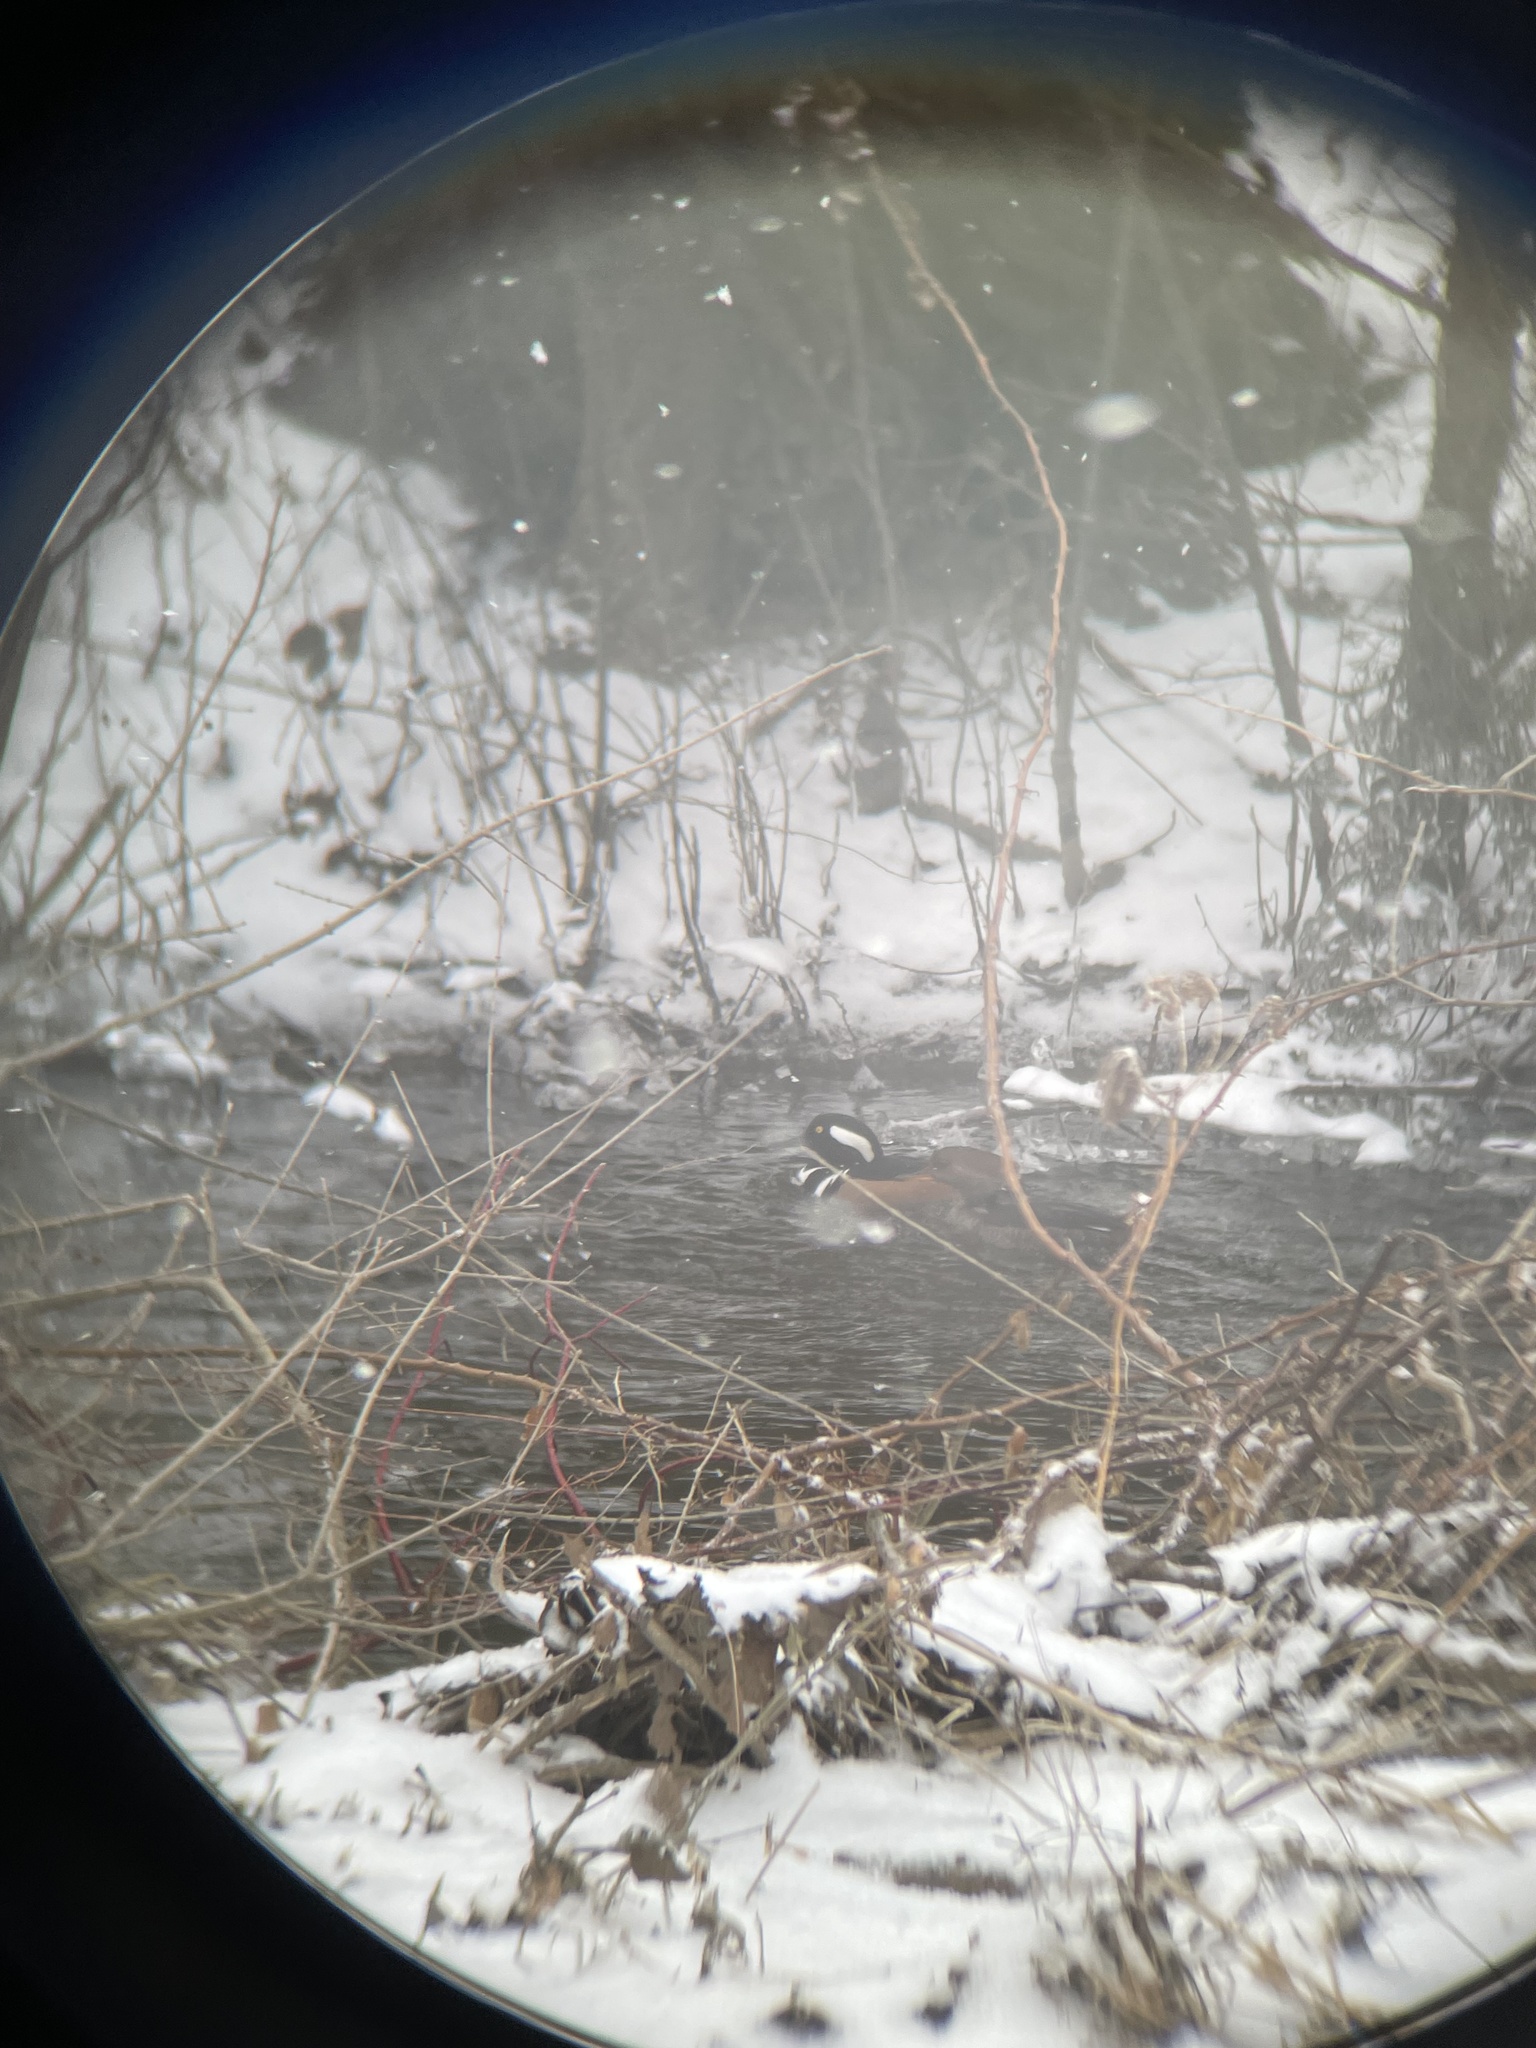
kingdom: Animalia
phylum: Chordata
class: Aves
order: Anseriformes
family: Anatidae
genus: Lophodytes
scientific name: Lophodytes cucullatus
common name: Hooded merganser
